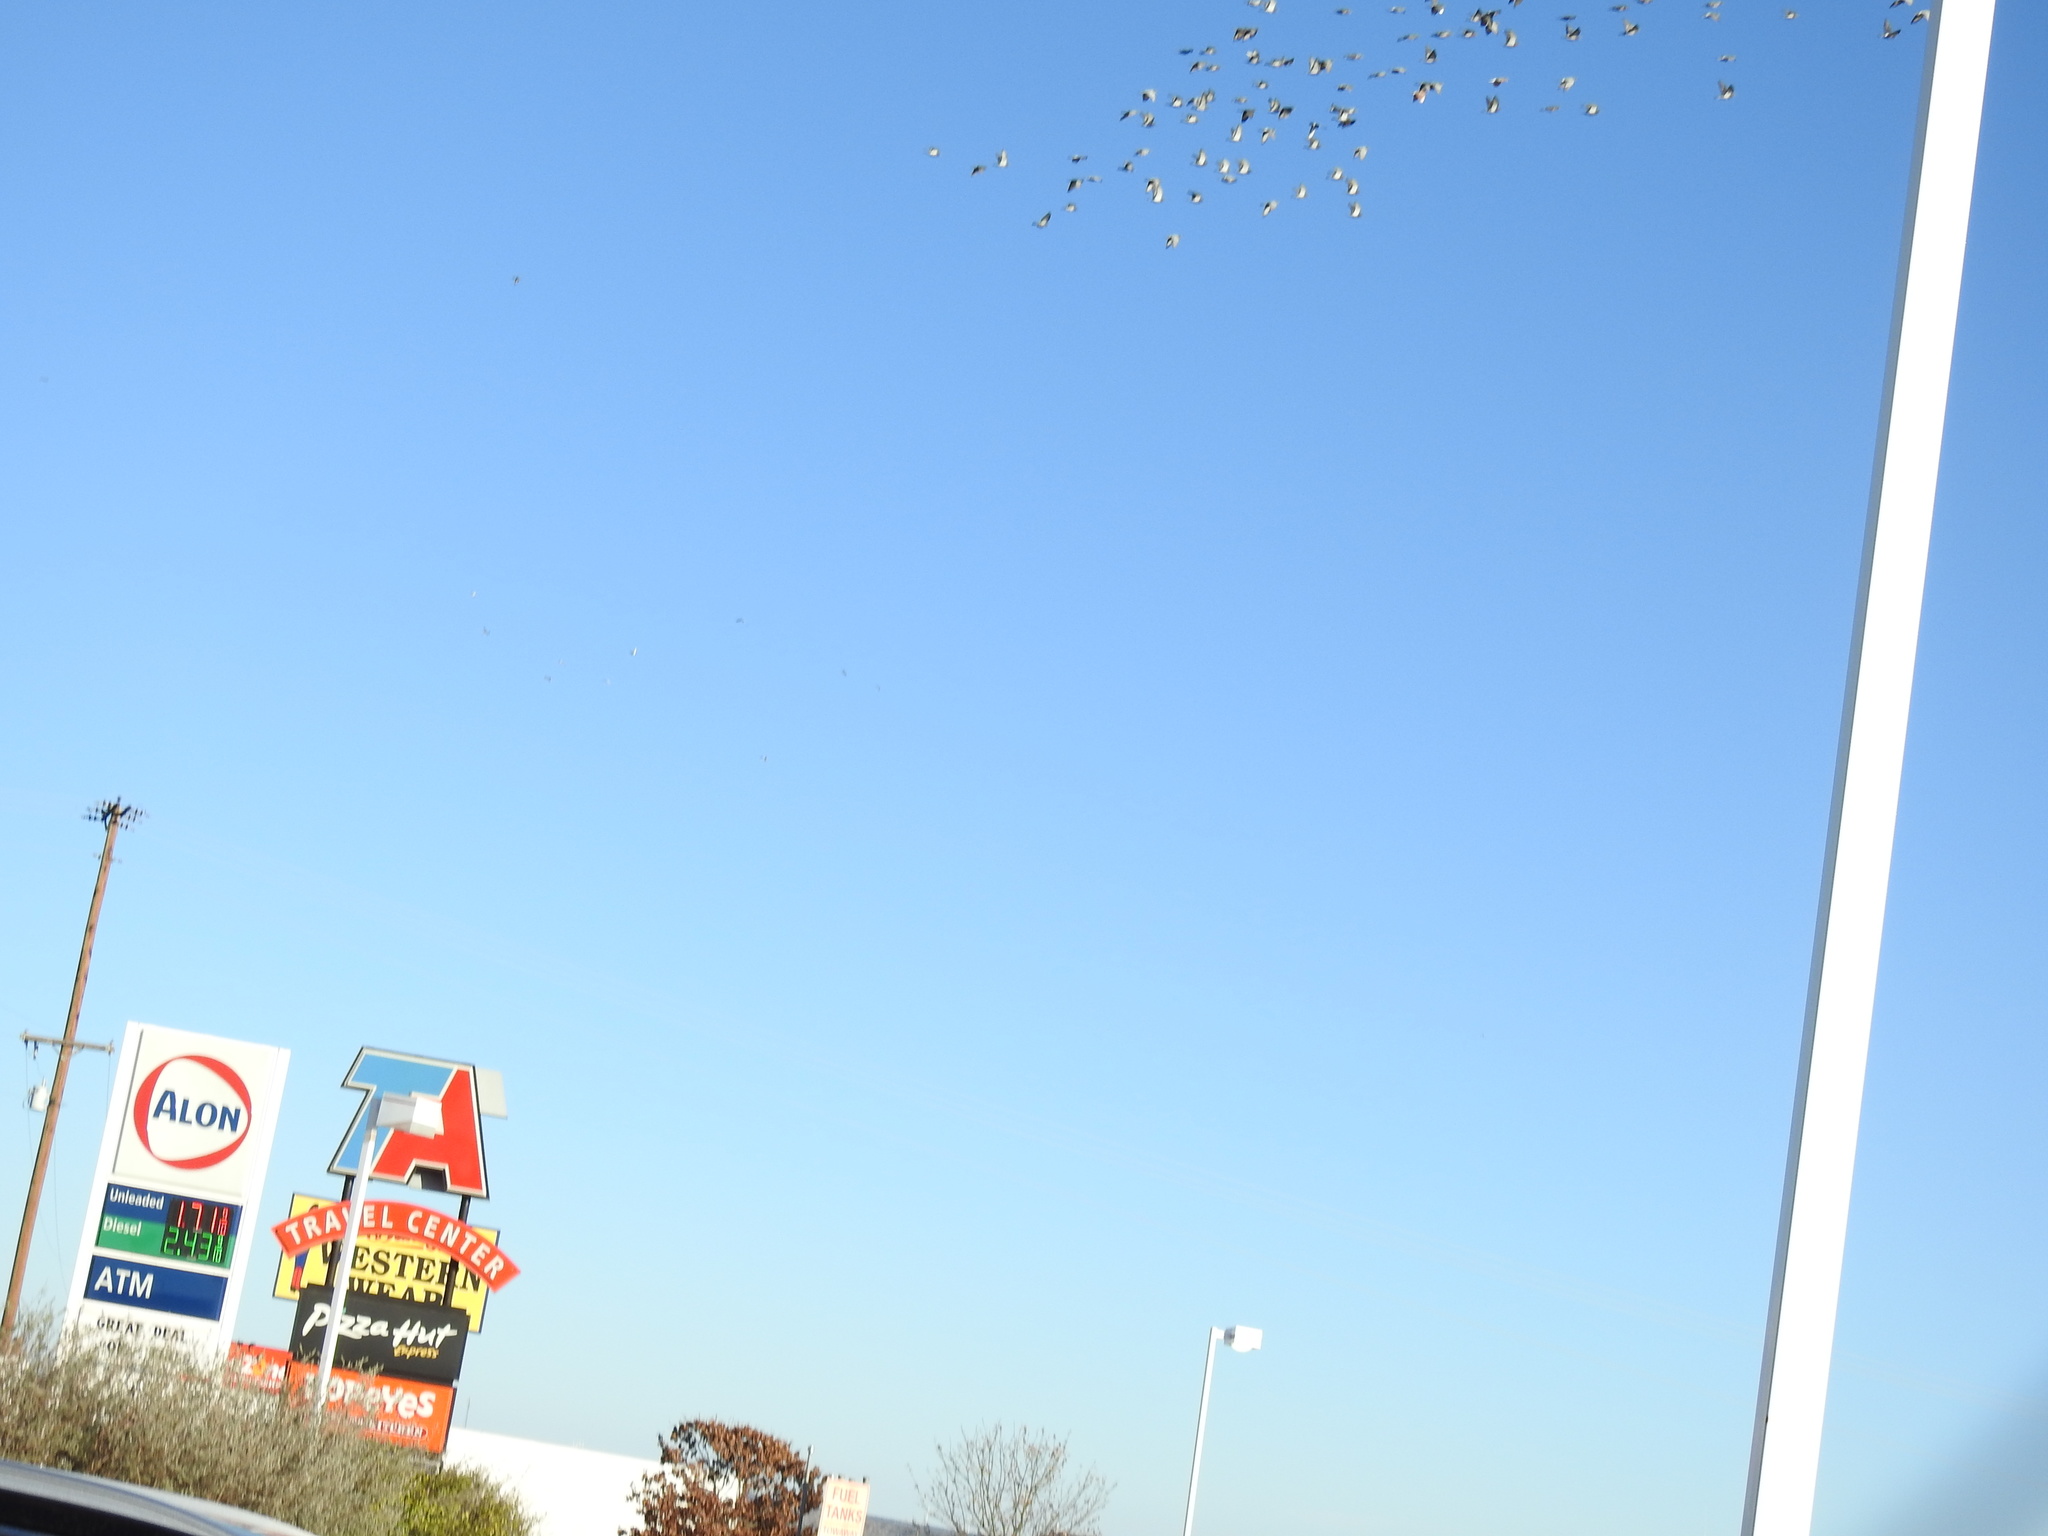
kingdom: Animalia
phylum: Chordata
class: Aves
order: Columbiformes
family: Columbidae
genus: Columba
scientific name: Columba livia
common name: Rock pigeon
